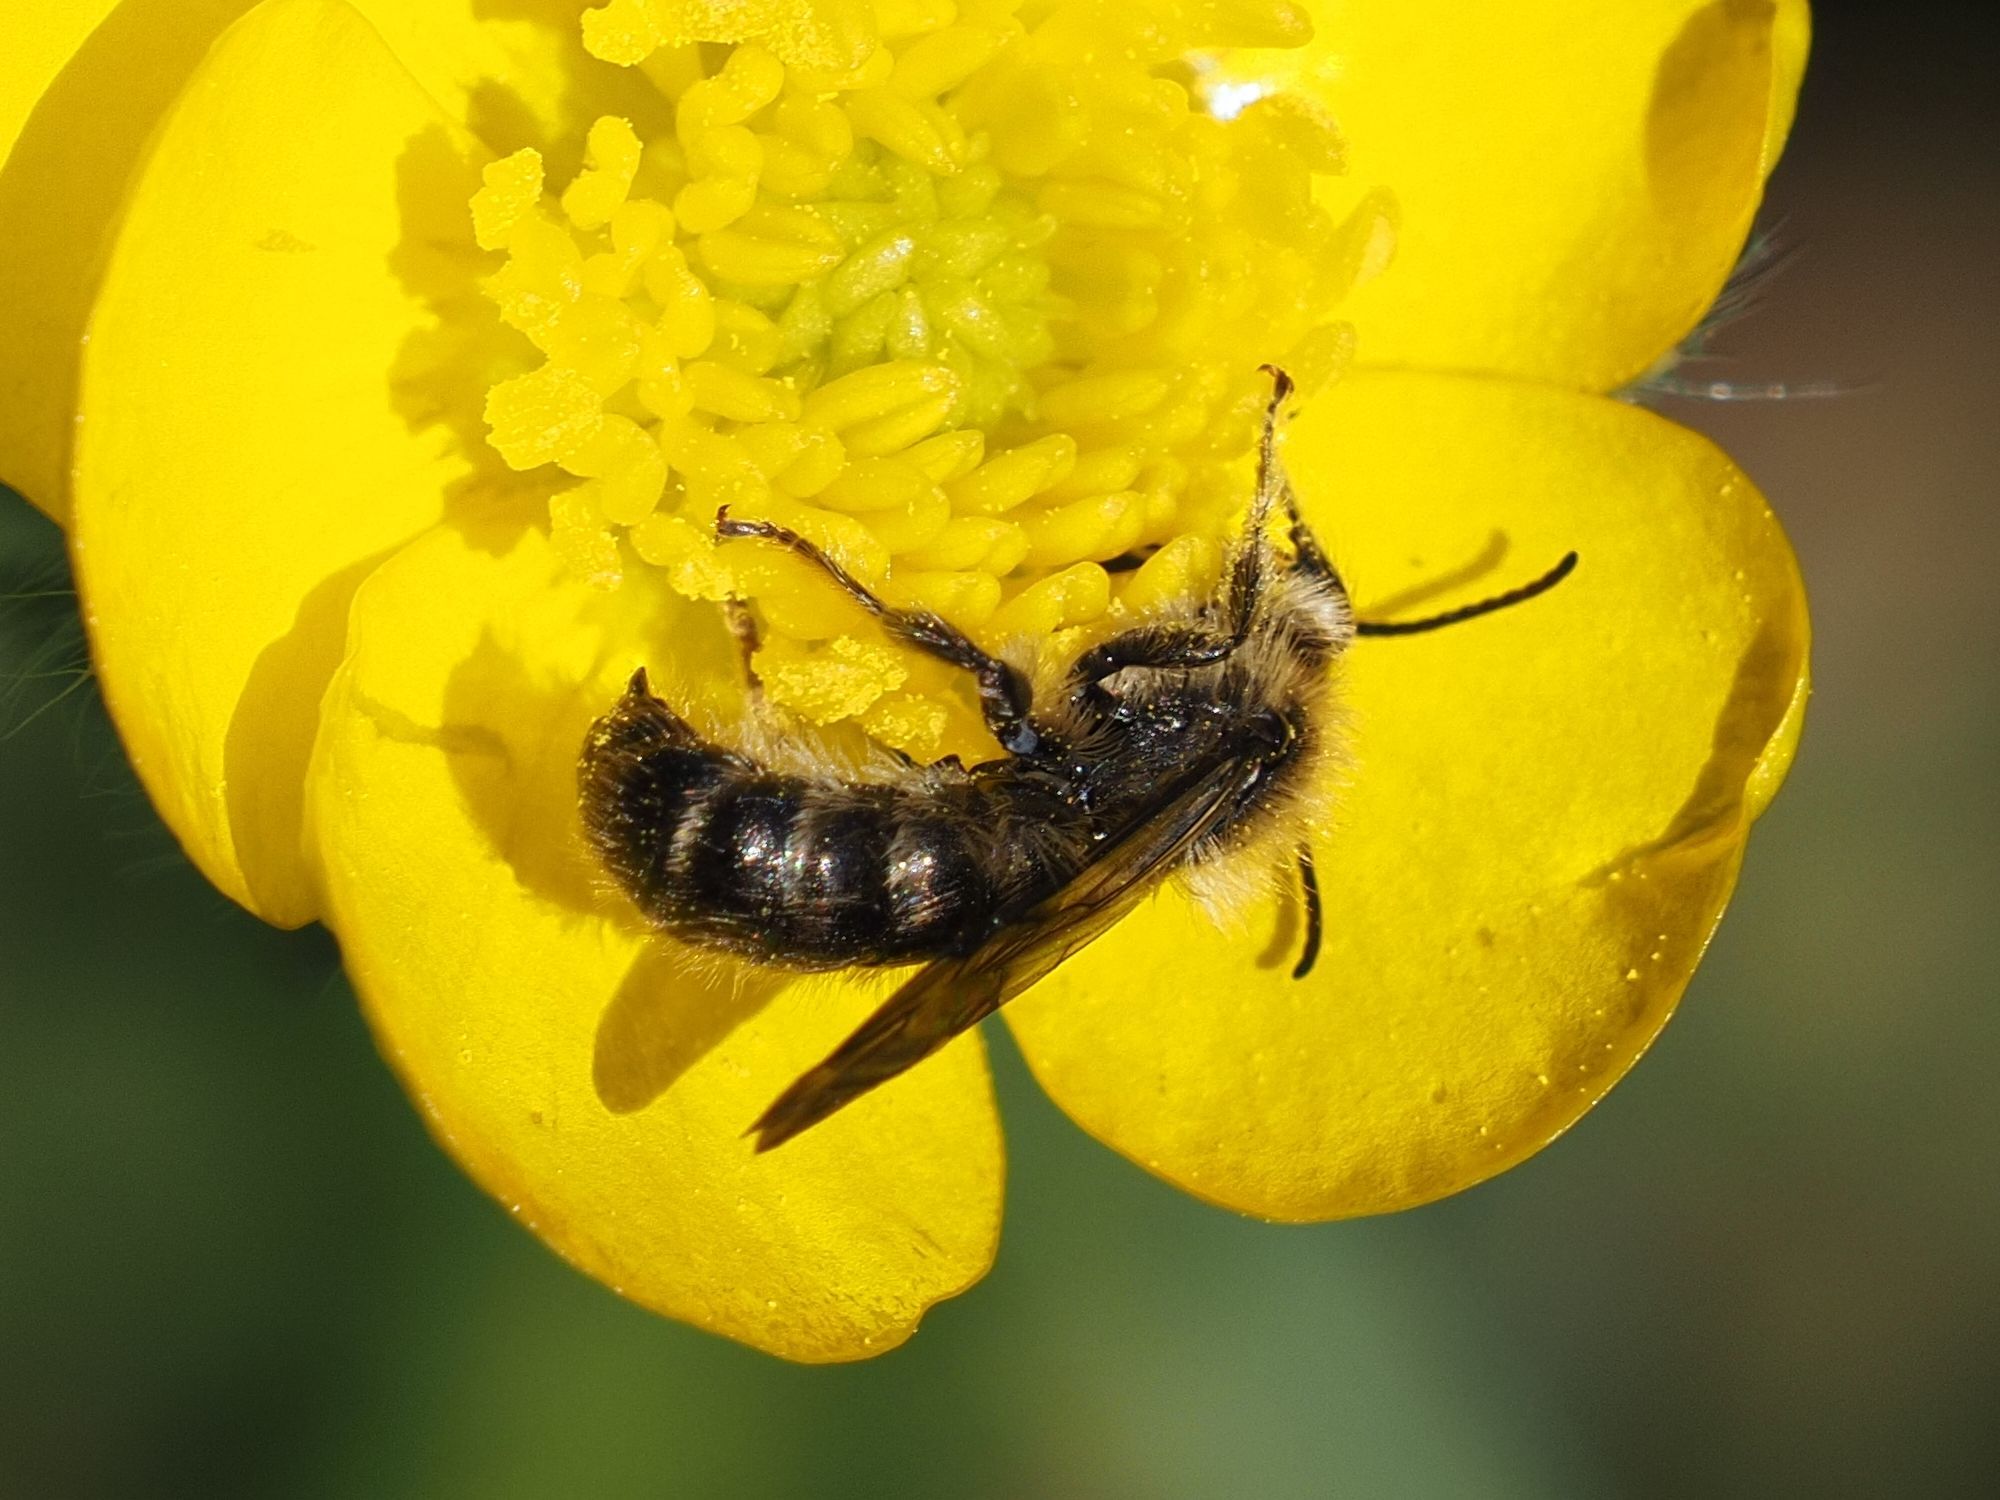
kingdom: Animalia
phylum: Arthropoda
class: Insecta
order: Hymenoptera
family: Megachilidae
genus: Chelostoma
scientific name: Chelostoma florisomne
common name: Sleepy carpenter bee
